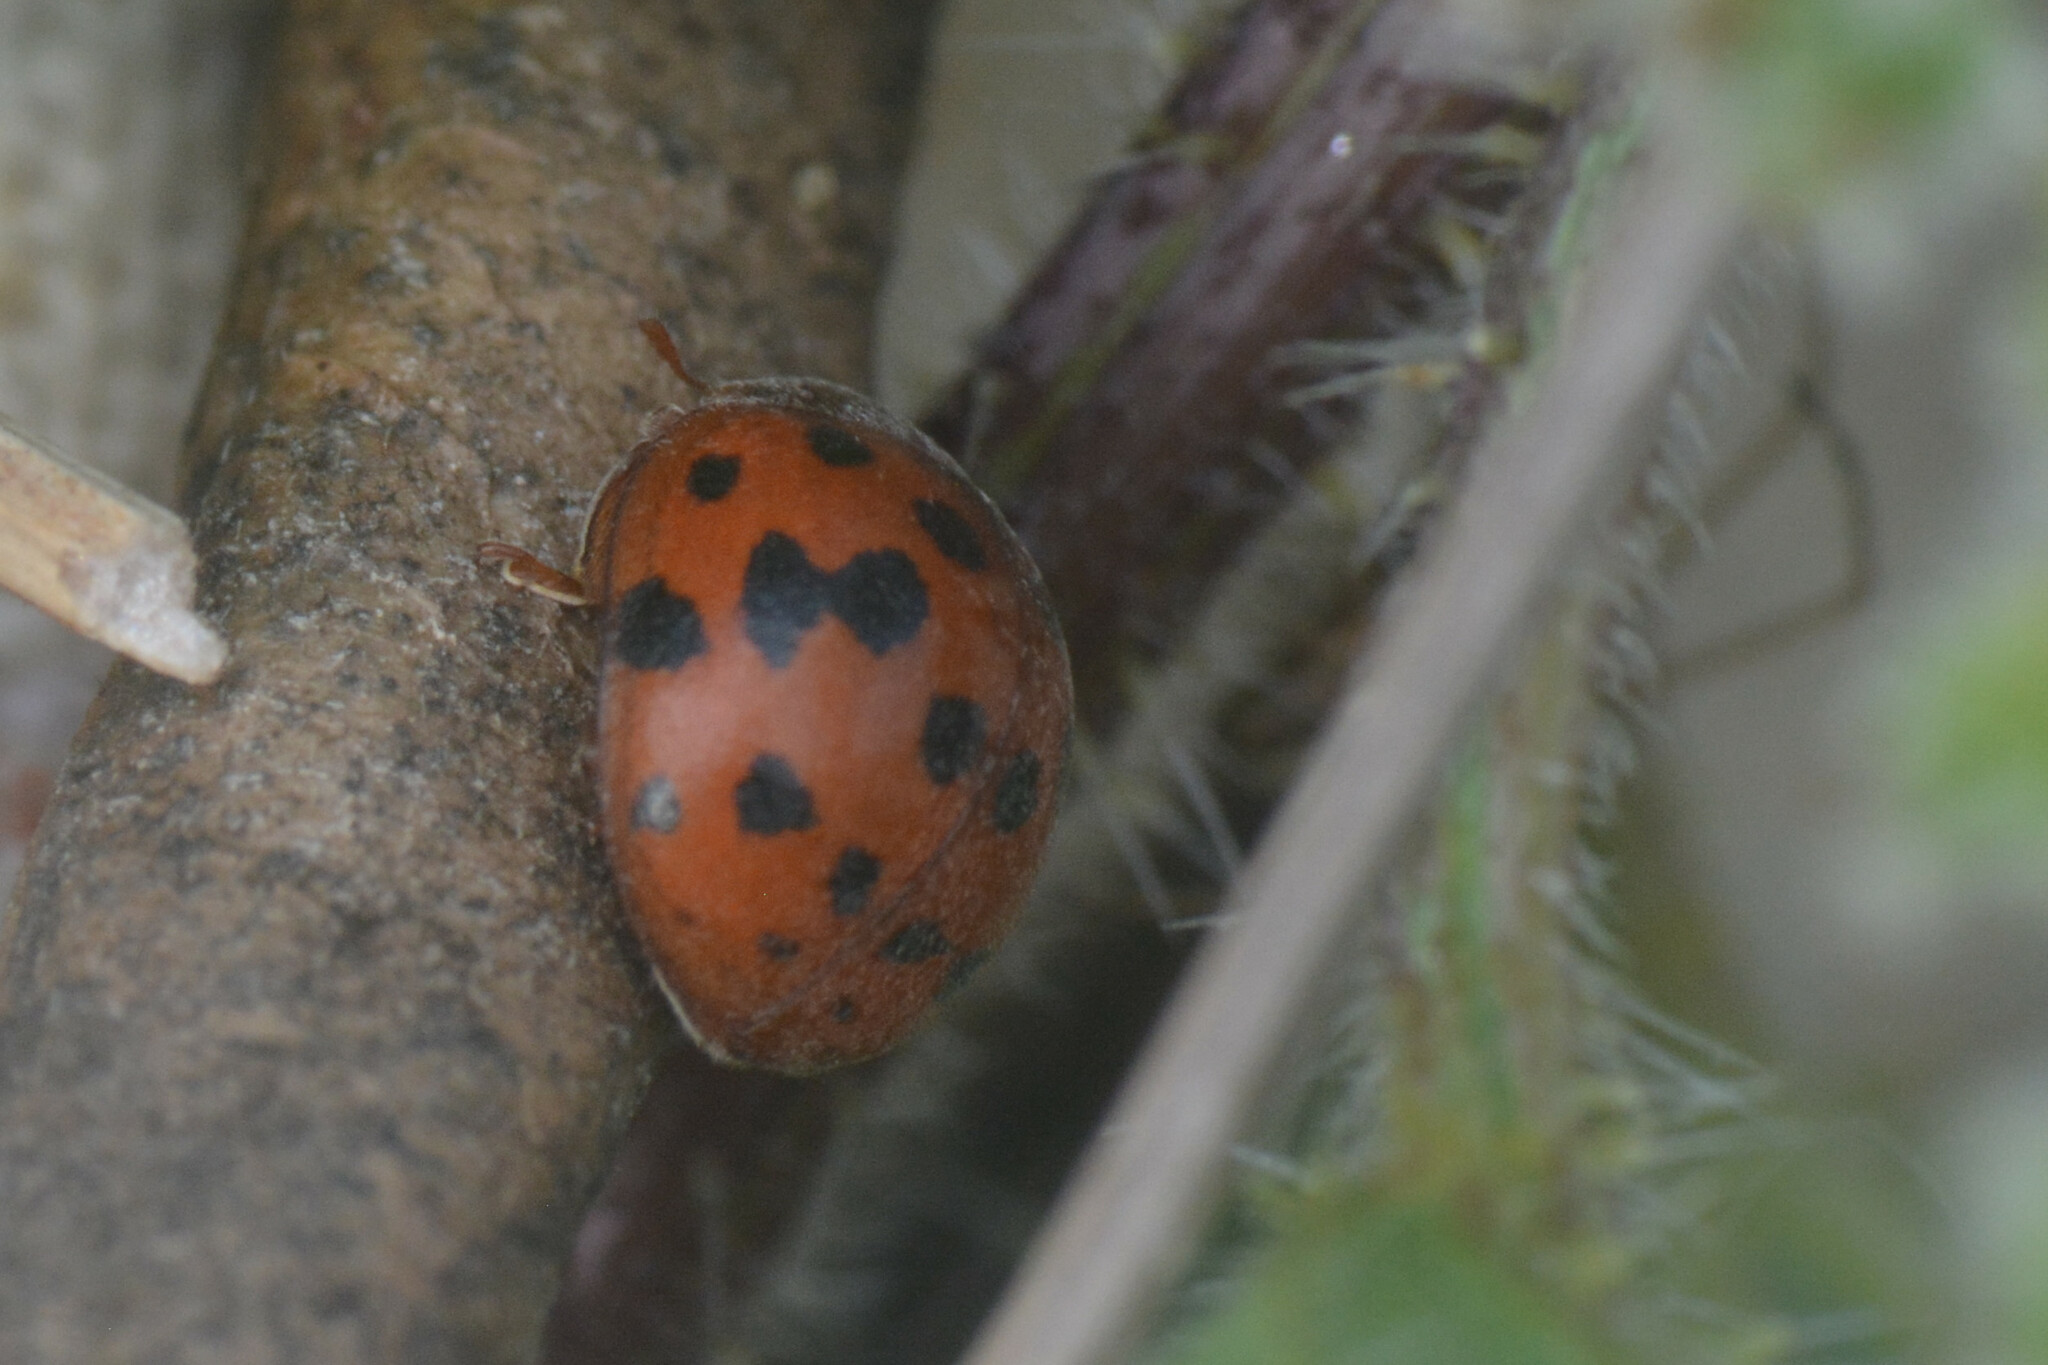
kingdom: Animalia
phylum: Arthropoda
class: Insecta
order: Coleoptera
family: Coccinellidae
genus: Subcoccinella
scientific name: Subcoccinella vigintiquatuorpunctata
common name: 24-spot ladybird
